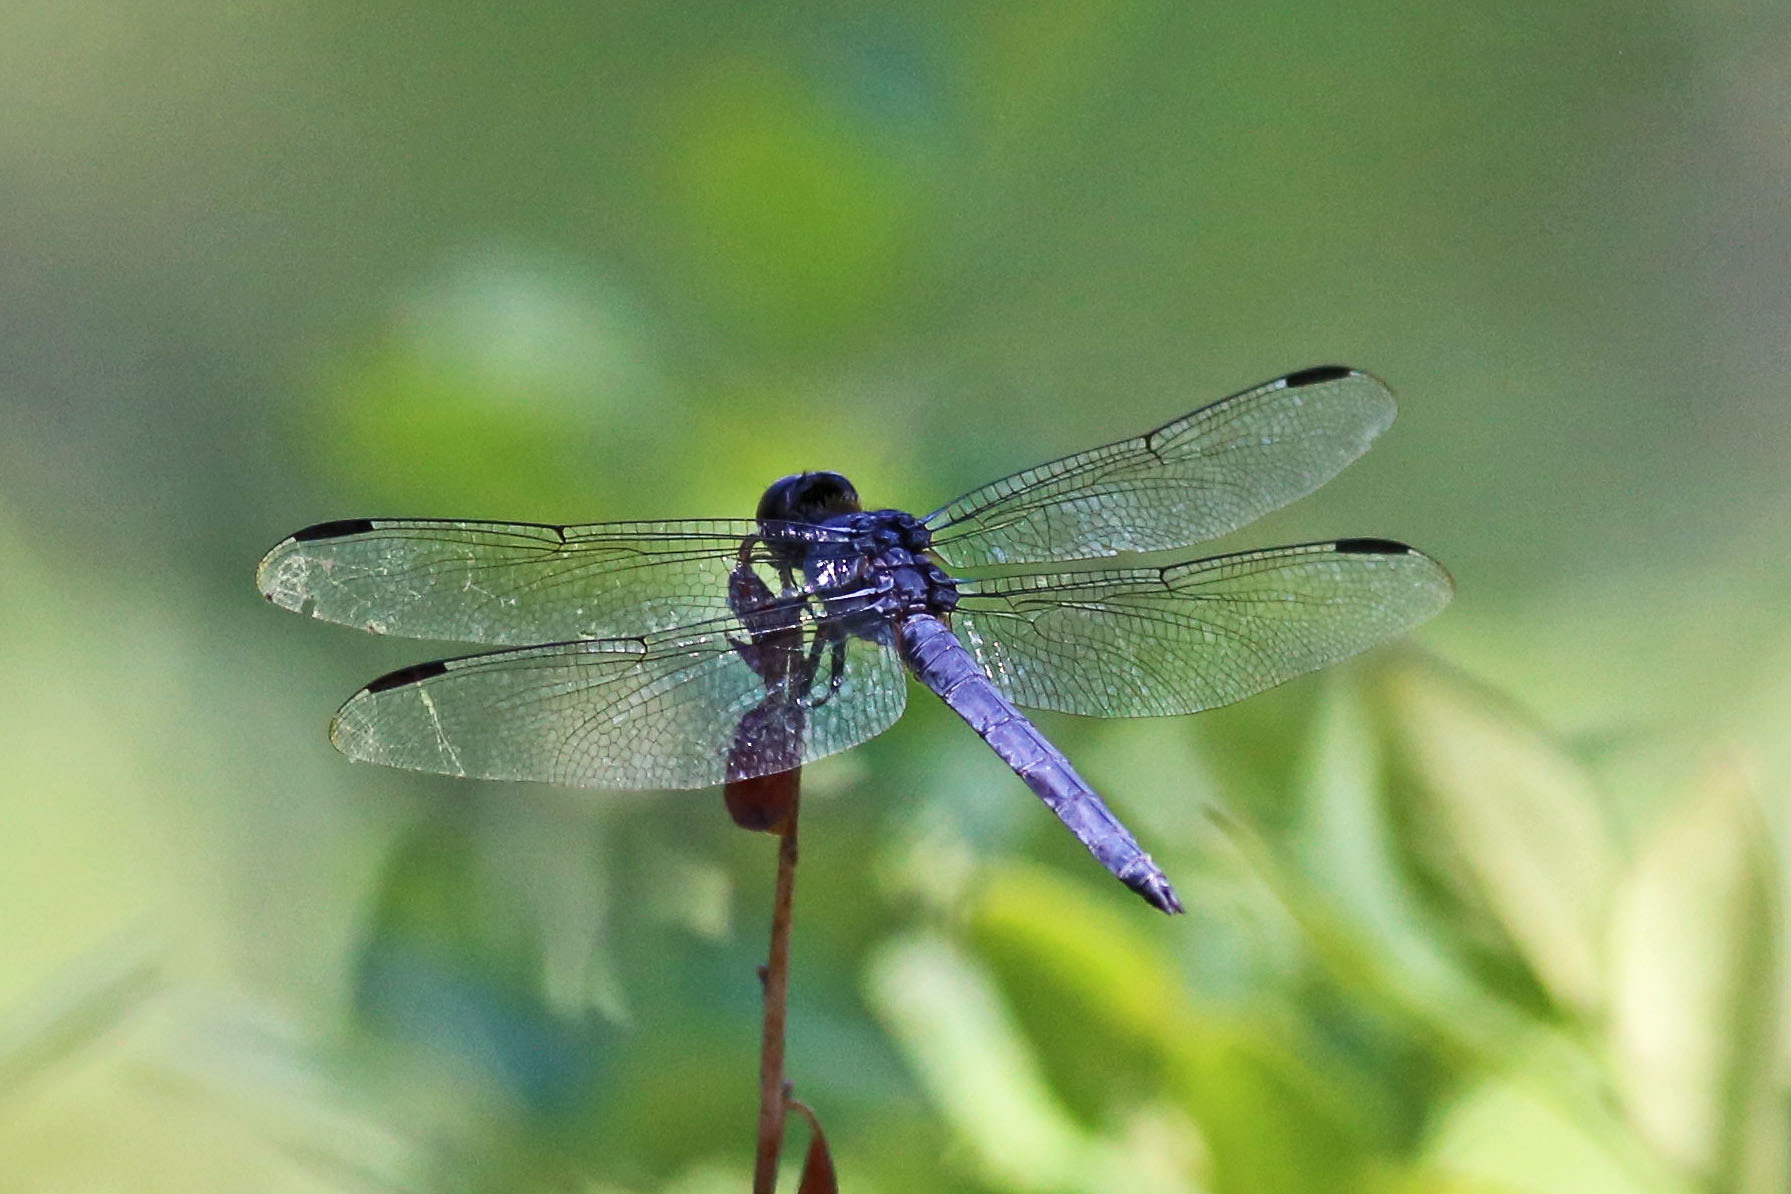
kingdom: Animalia
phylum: Arthropoda
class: Insecta
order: Odonata
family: Libellulidae
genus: Libellula
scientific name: Libellula incesta
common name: Slaty skimmer
